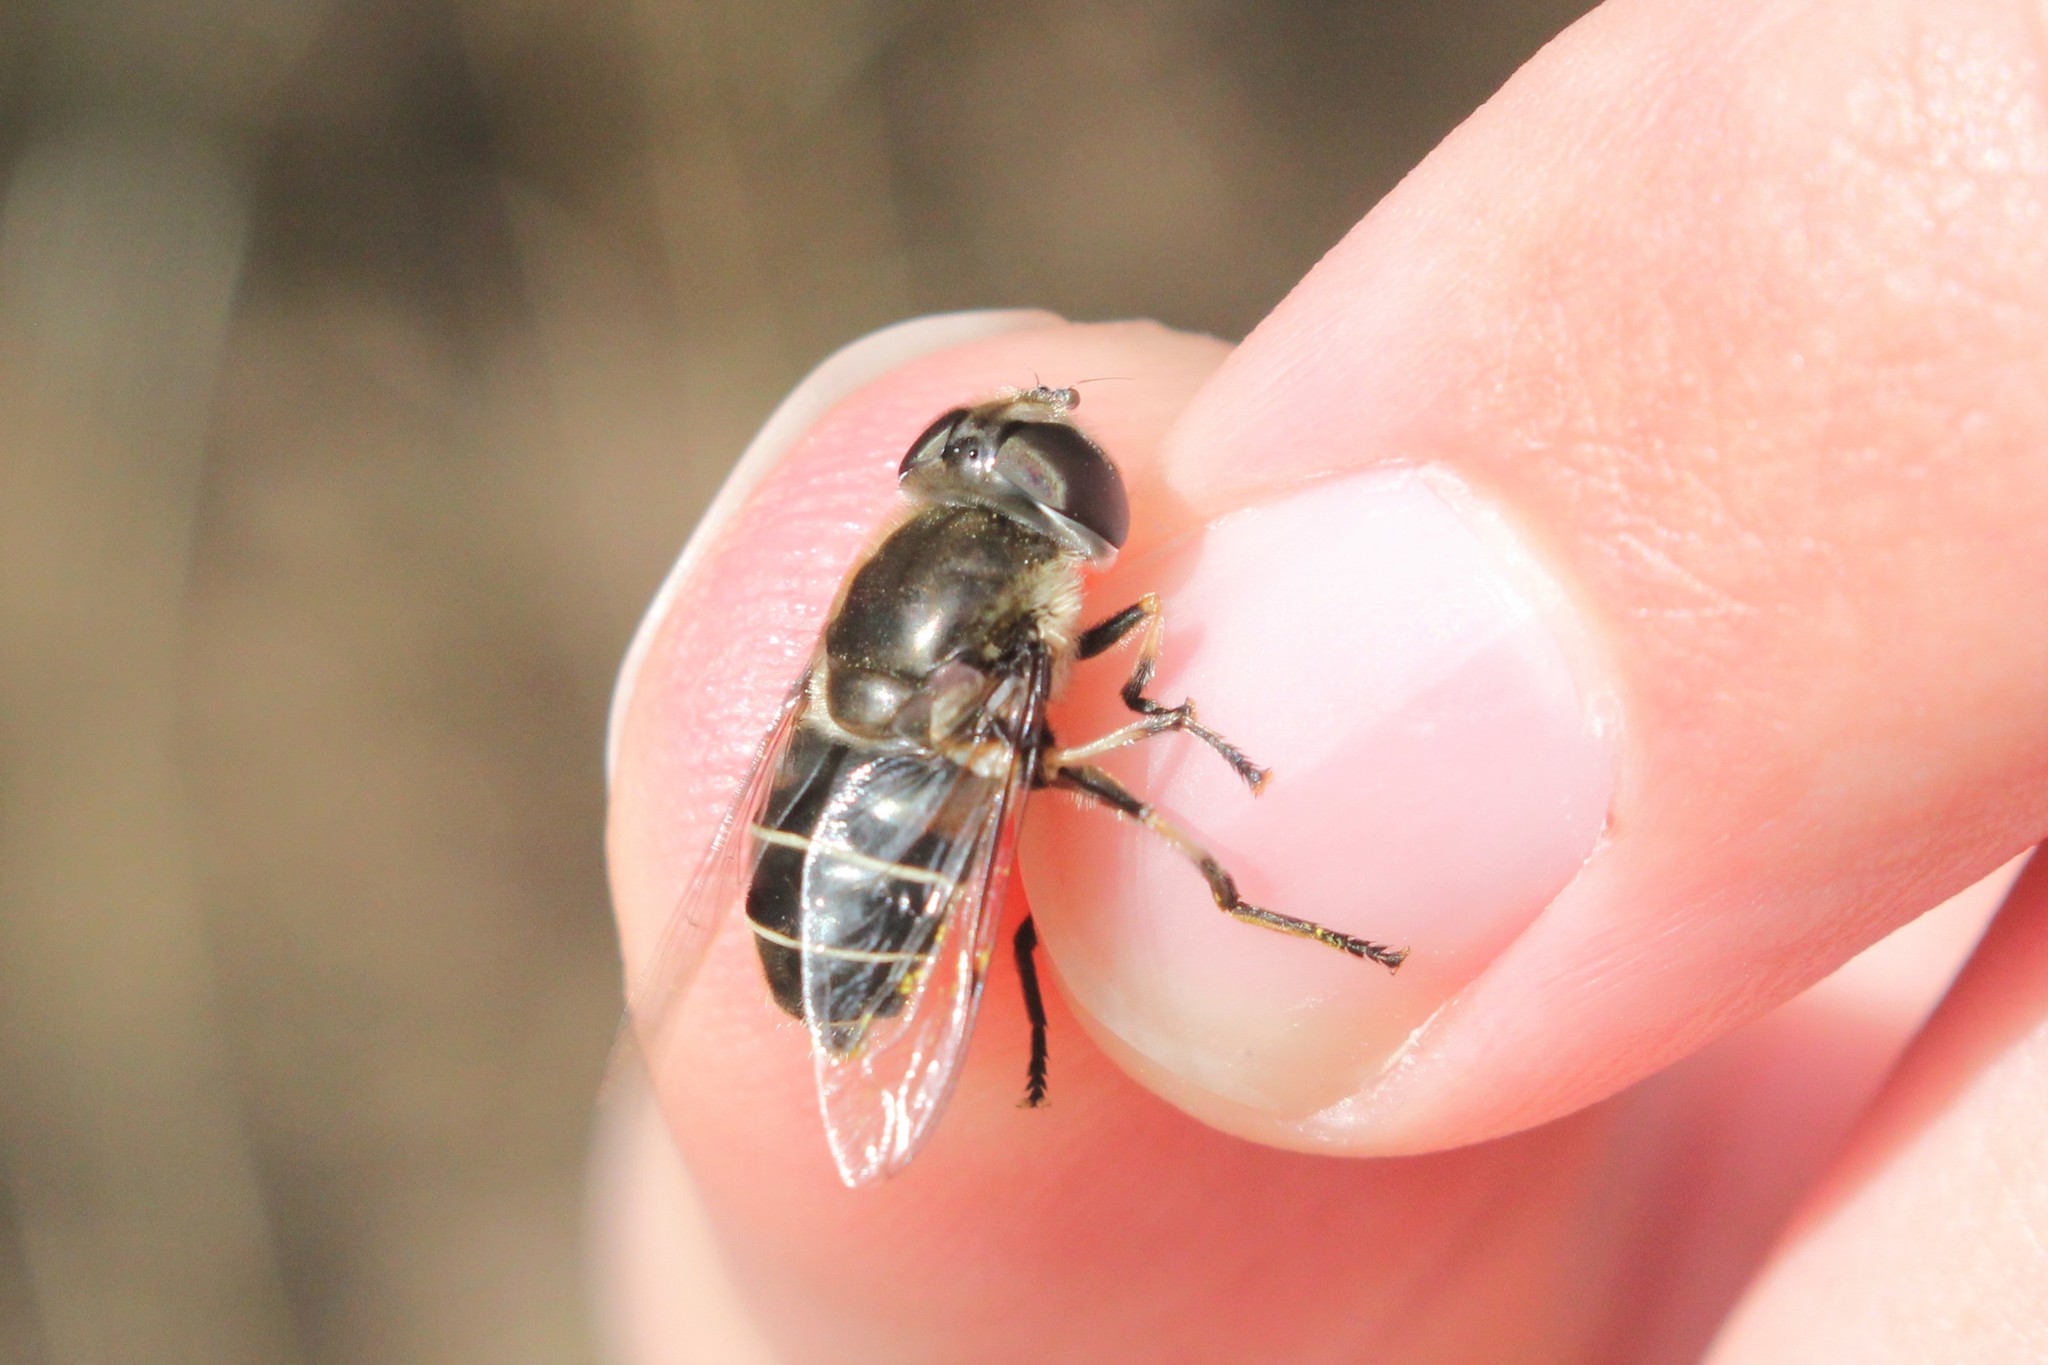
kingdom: Animalia
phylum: Arthropoda
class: Insecta
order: Diptera
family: Syrphidae
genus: Eristalis
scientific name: Eristalis dimidiata
